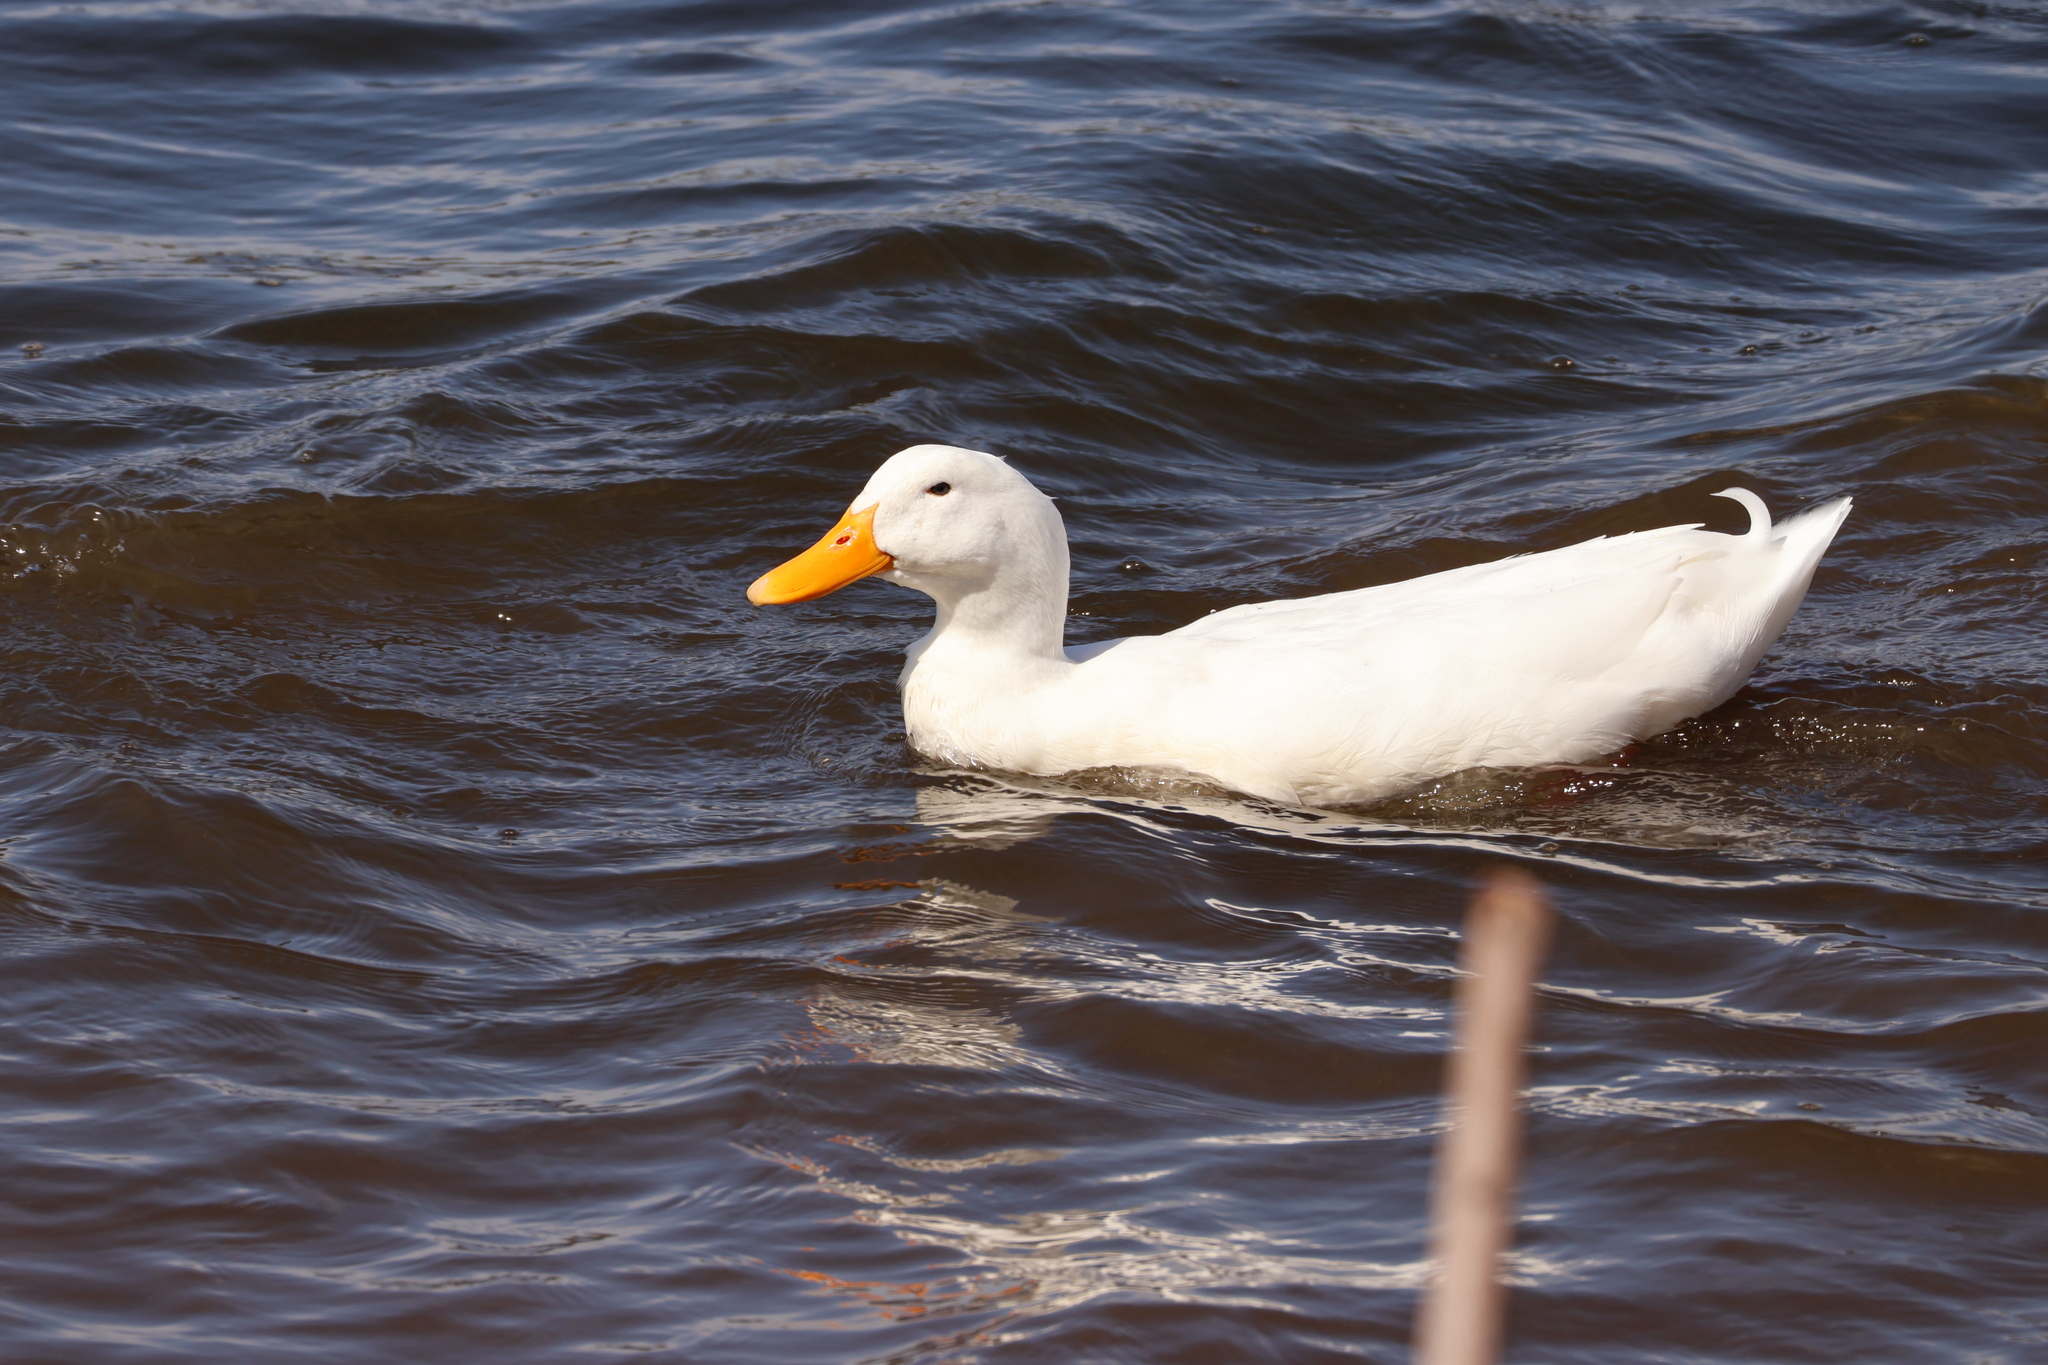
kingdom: Animalia
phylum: Chordata
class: Aves
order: Anseriformes
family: Anatidae
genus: Anas
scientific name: Anas platyrhynchos
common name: Mallard
